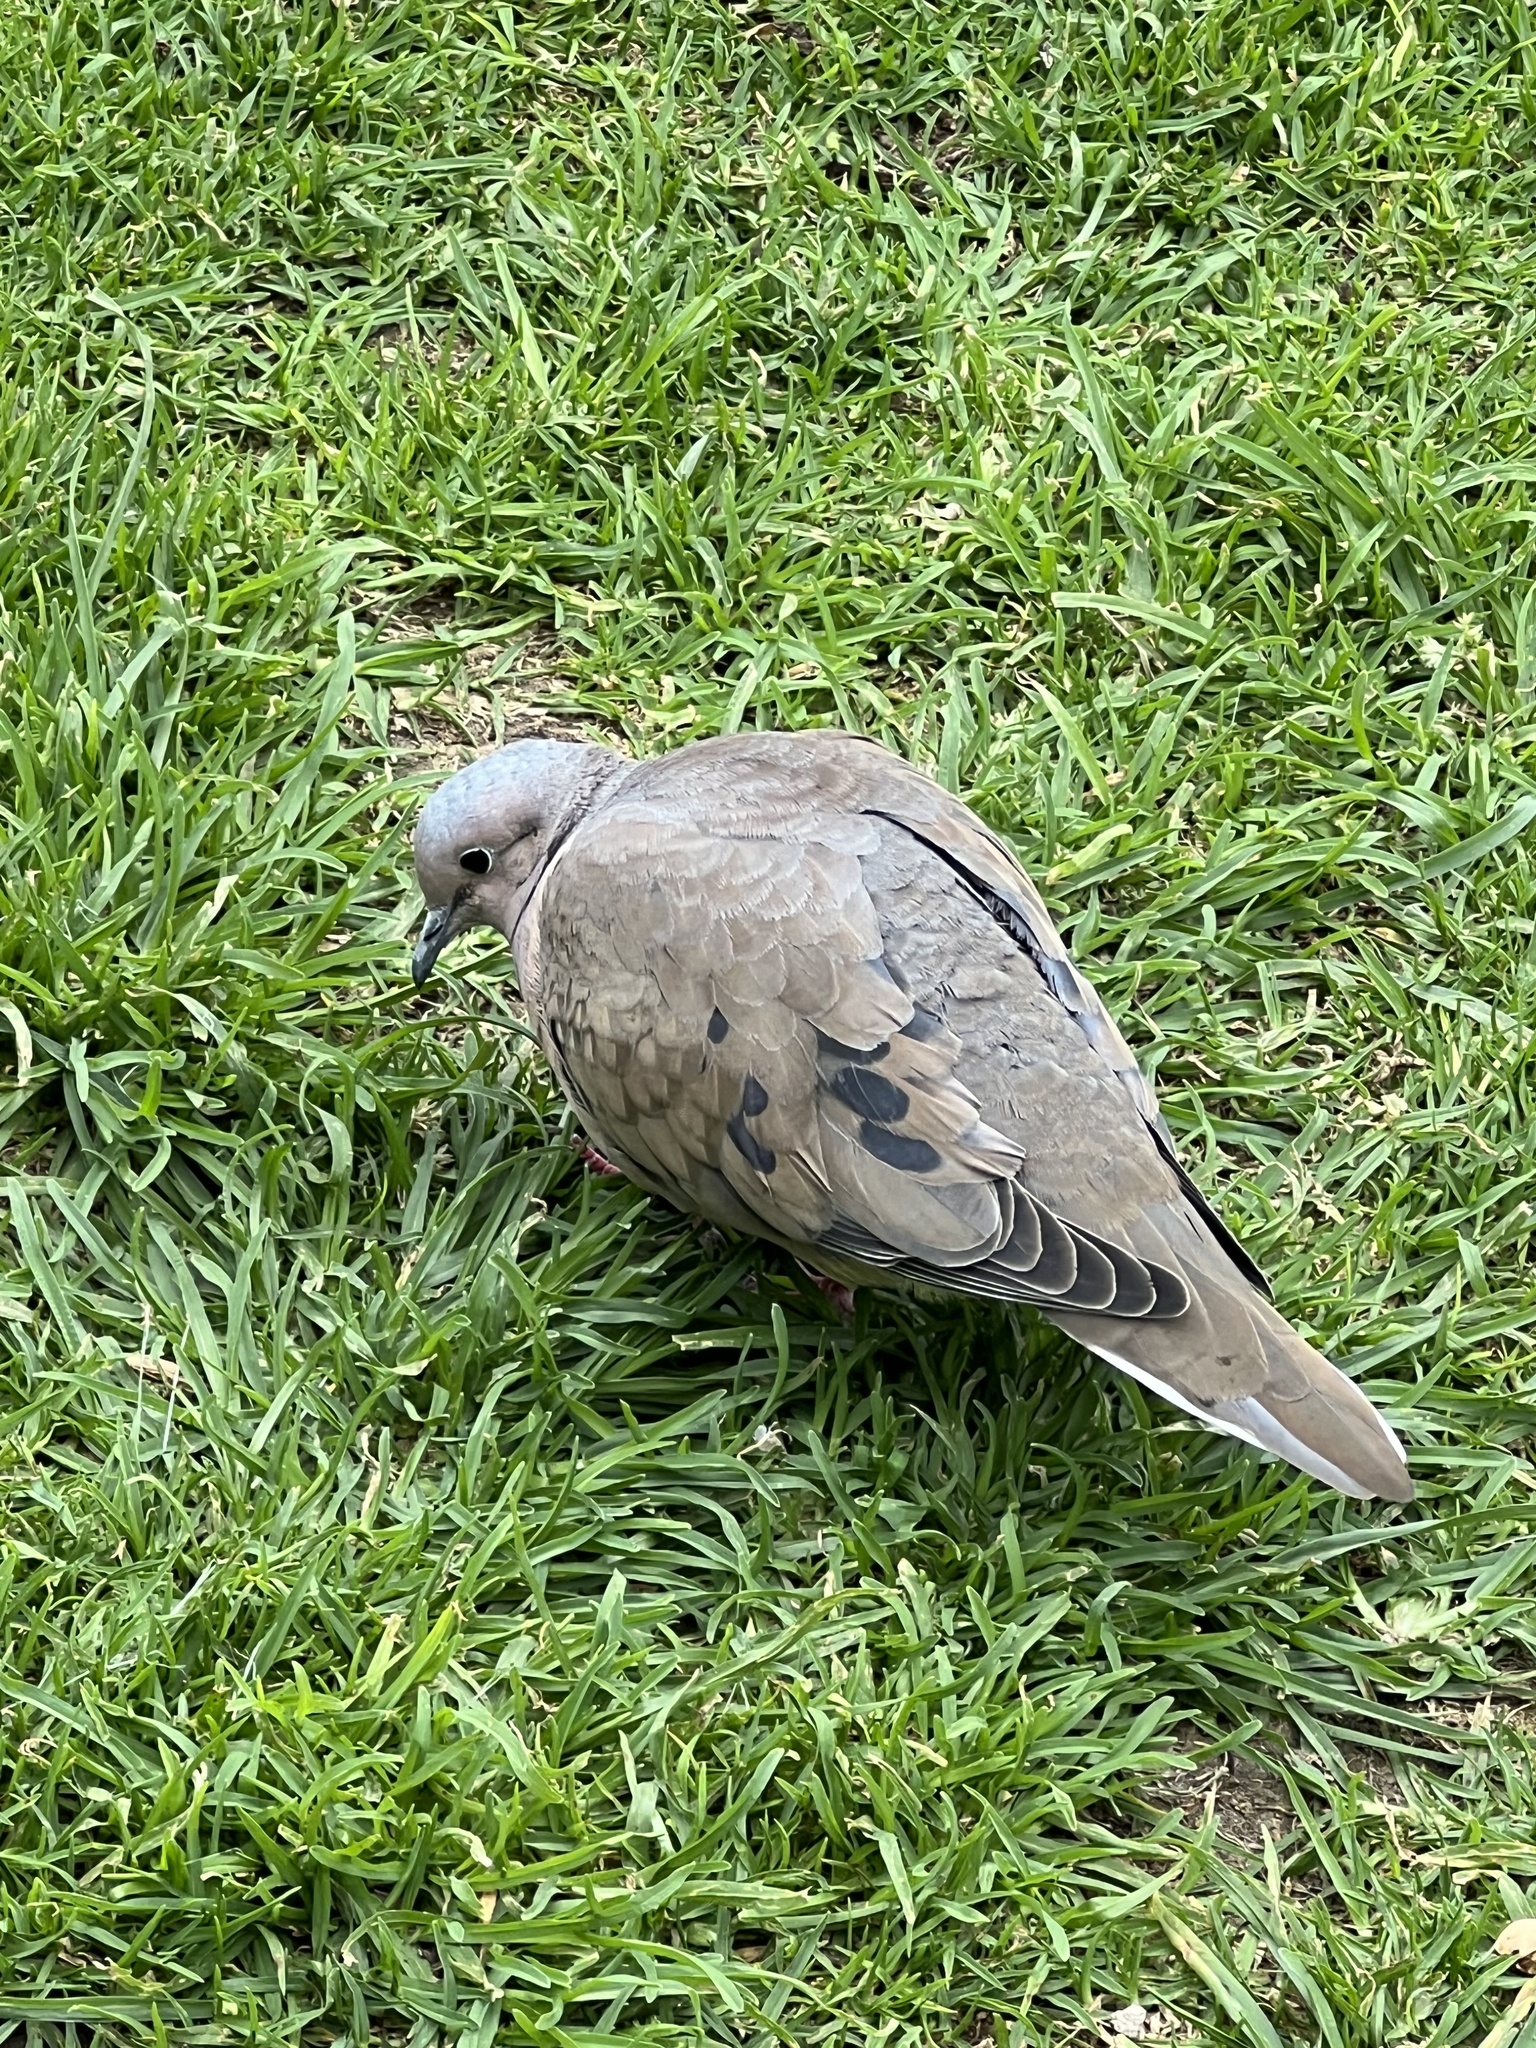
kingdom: Animalia
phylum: Chordata
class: Aves
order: Columbiformes
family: Columbidae
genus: Zenaida
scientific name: Zenaida auriculata
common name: Eared dove
